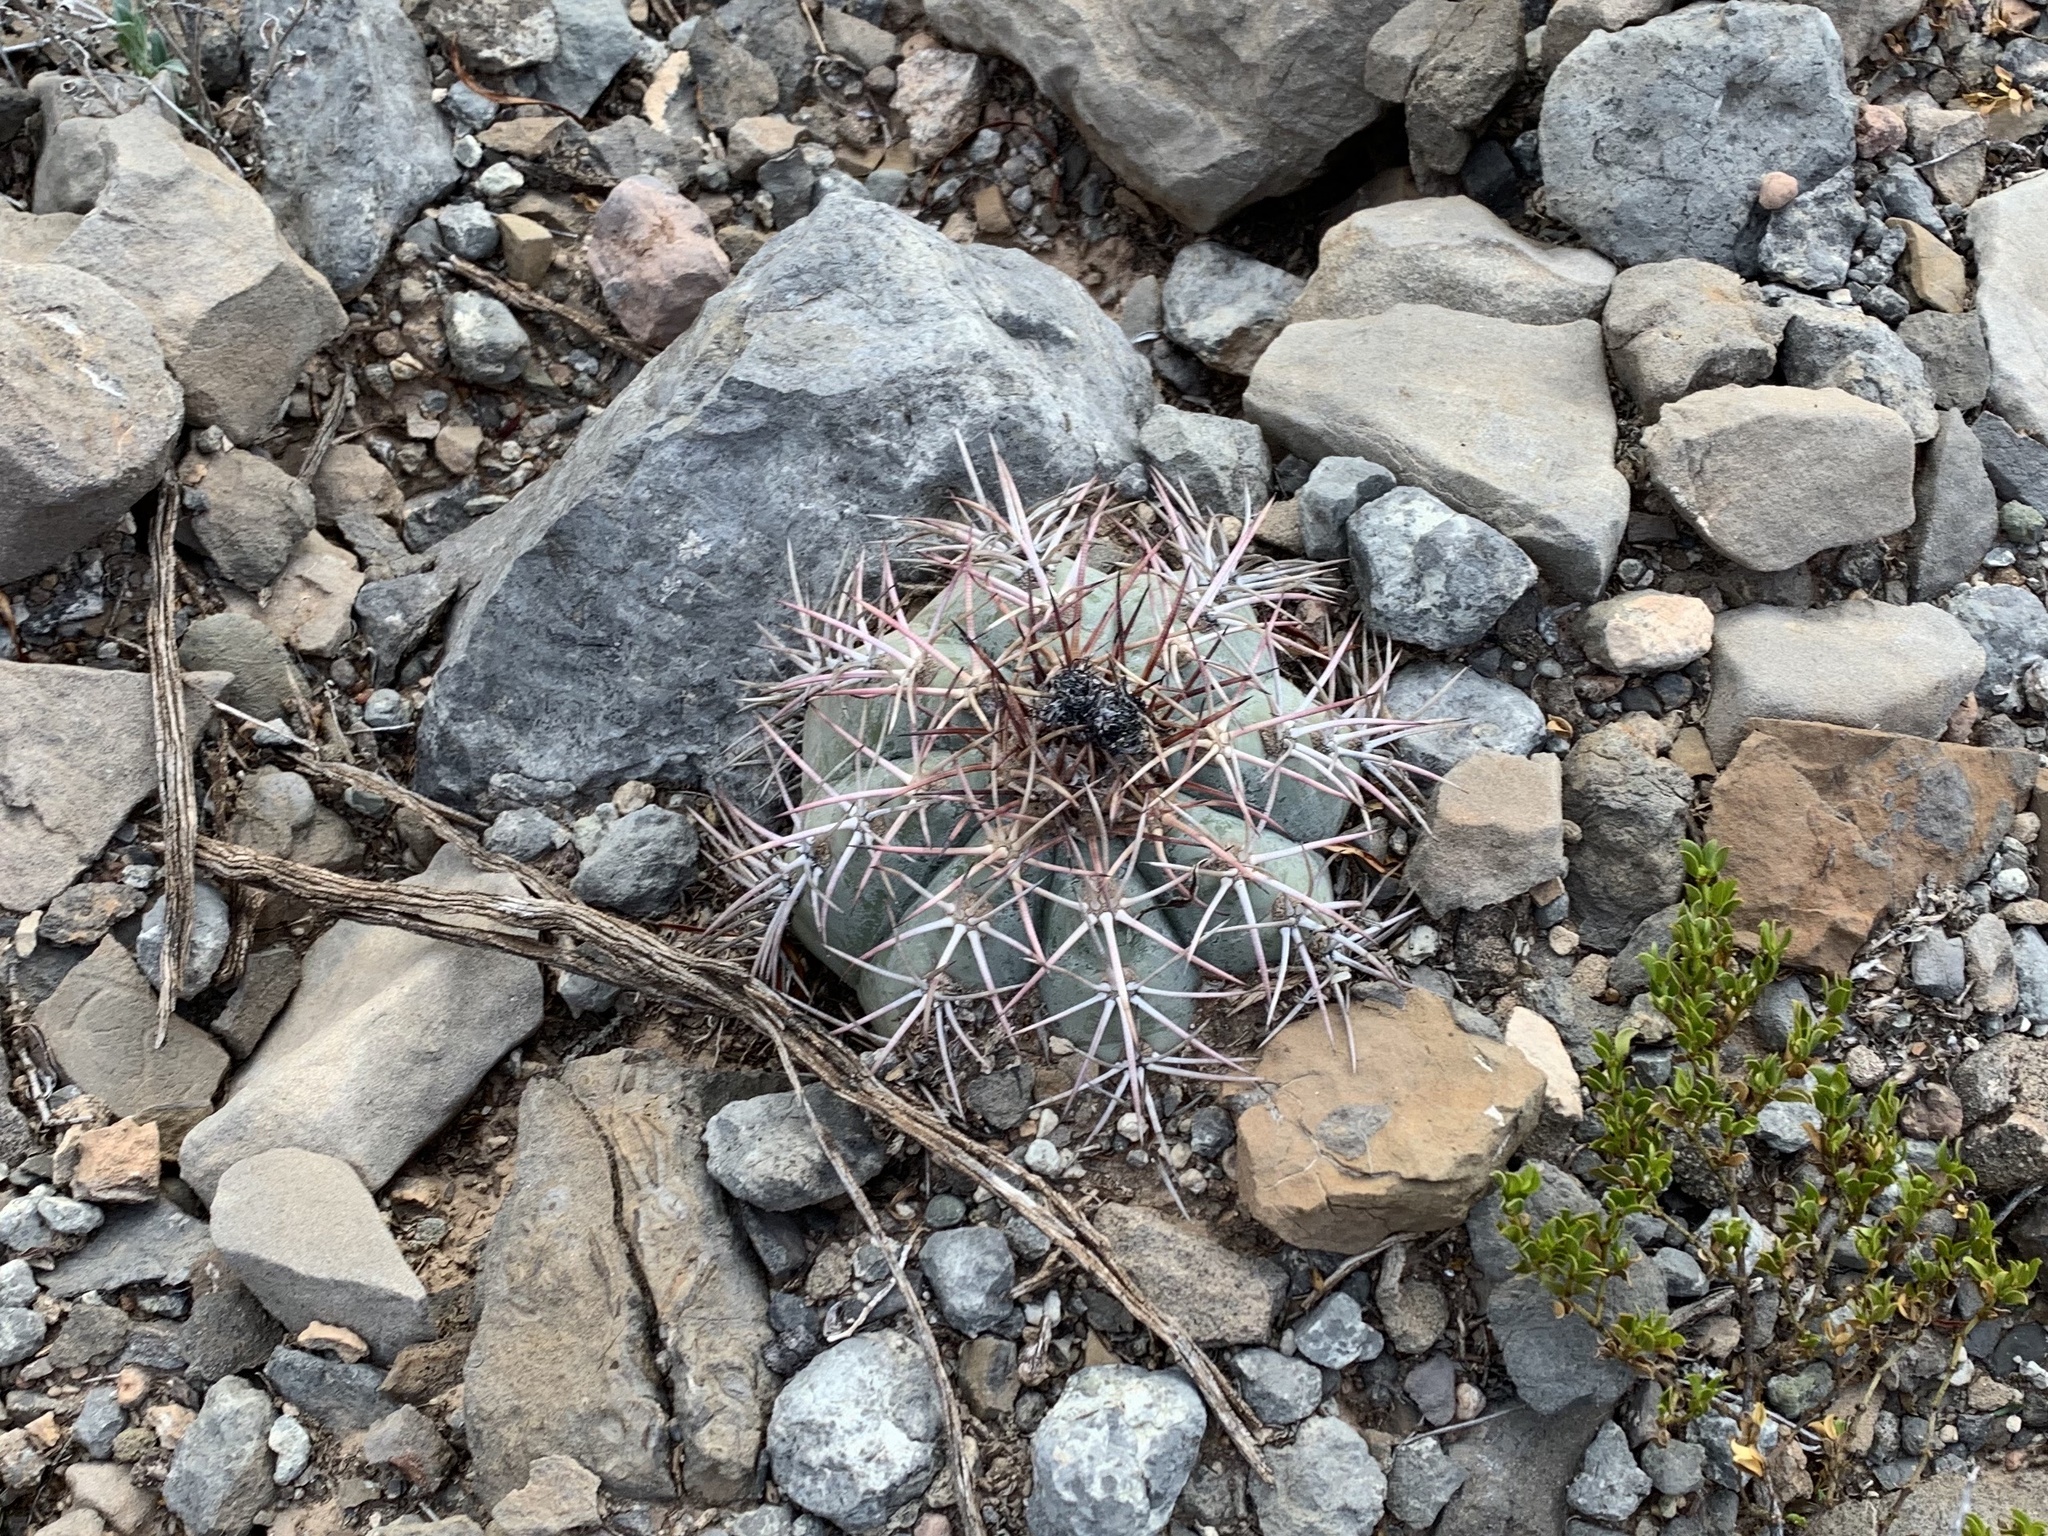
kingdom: Plantae
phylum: Tracheophyta
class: Magnoliopsida
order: Caryophyllales
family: Cactaceae
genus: Echinocactus
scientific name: Echinocactus horizonthalonius
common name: Devilshead
